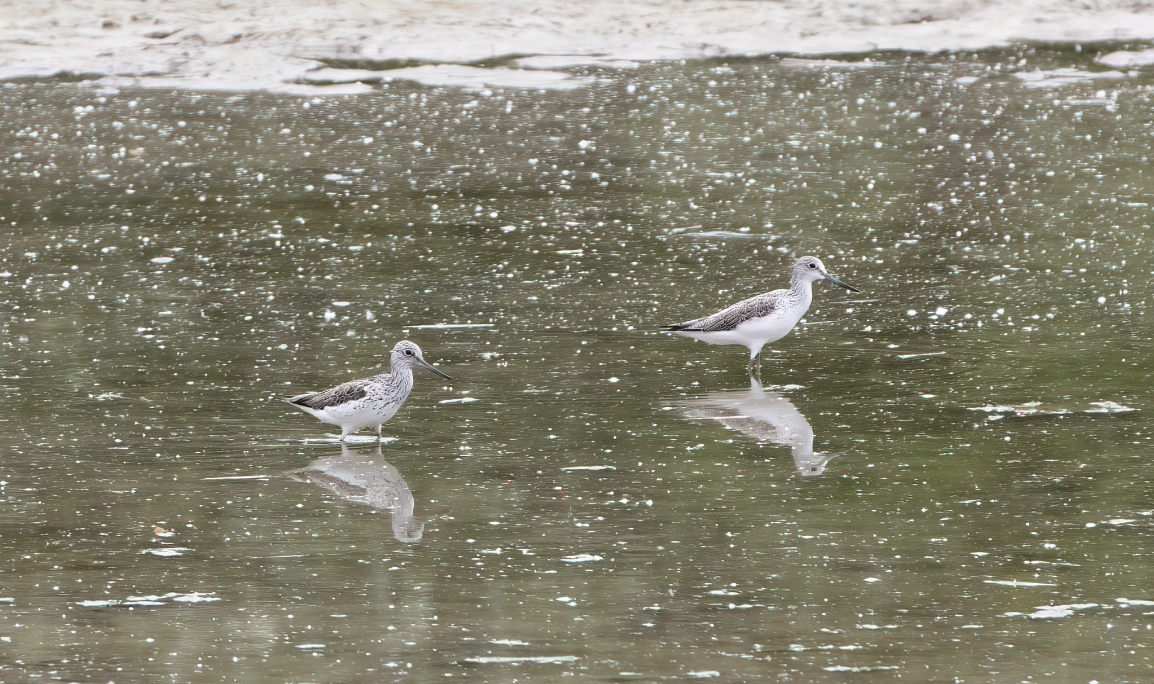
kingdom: Animalia
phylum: Chordata
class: Aves
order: Charadriiformes
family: Scolopacidae
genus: Tringa
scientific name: Tringa nebularia
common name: Common greenshank
